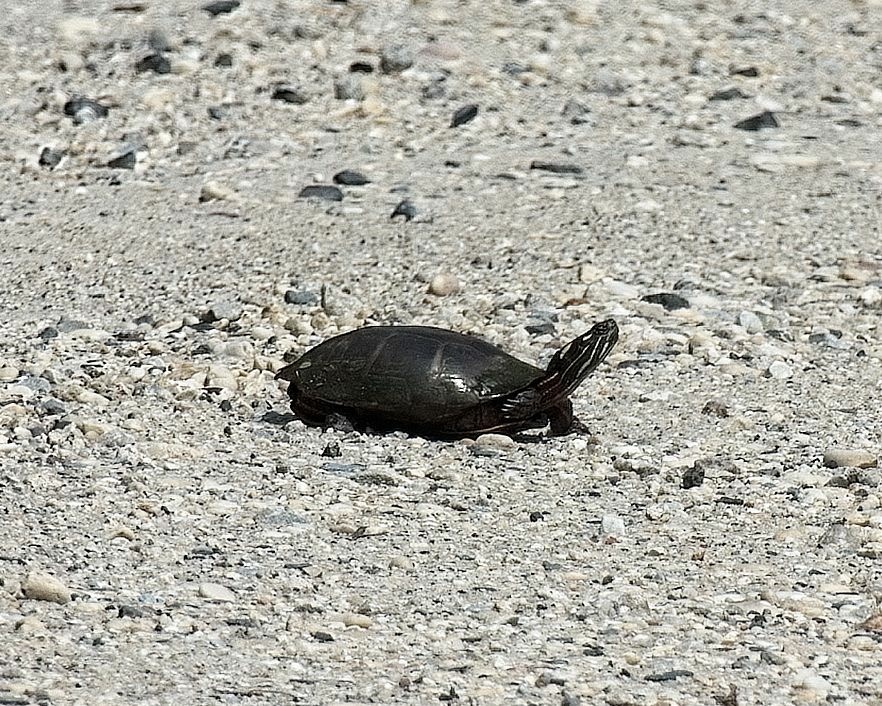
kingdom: Animalia
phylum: Chordata
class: Testudines
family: Emydidae
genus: Chrysemys
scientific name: Chrysemys picta
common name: Painted turtle
